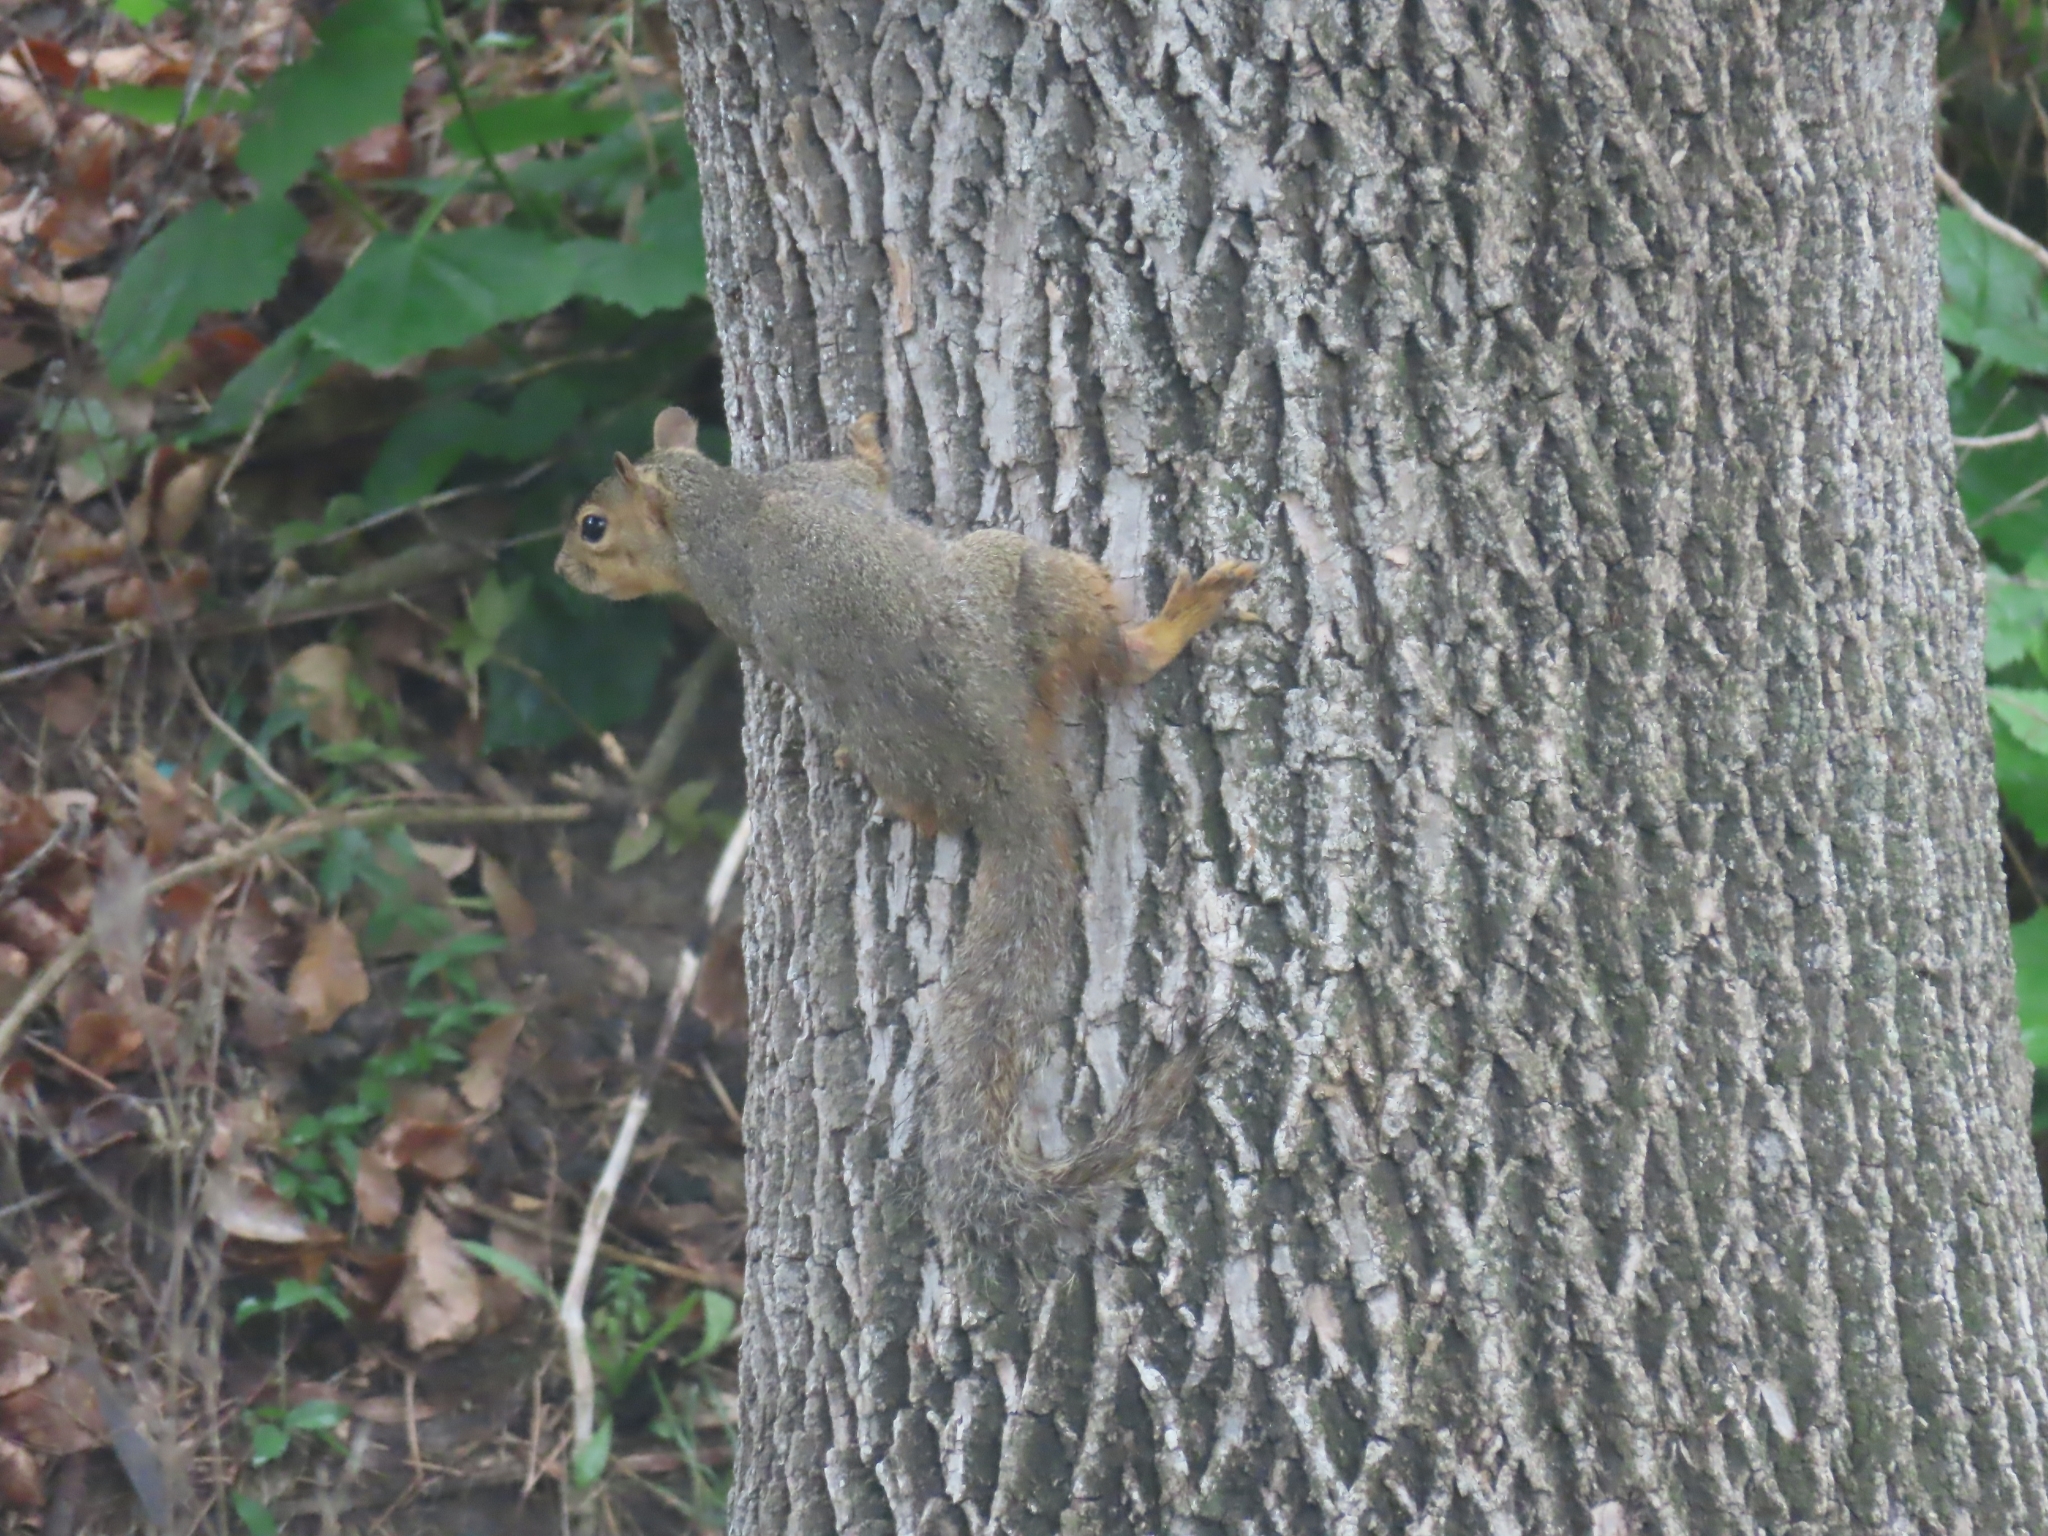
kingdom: Animalia
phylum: Chordata
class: Mammalia
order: Rodentia
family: Sciuridae
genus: Sciurus
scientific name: Sciurus niger
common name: Fox squirrel
